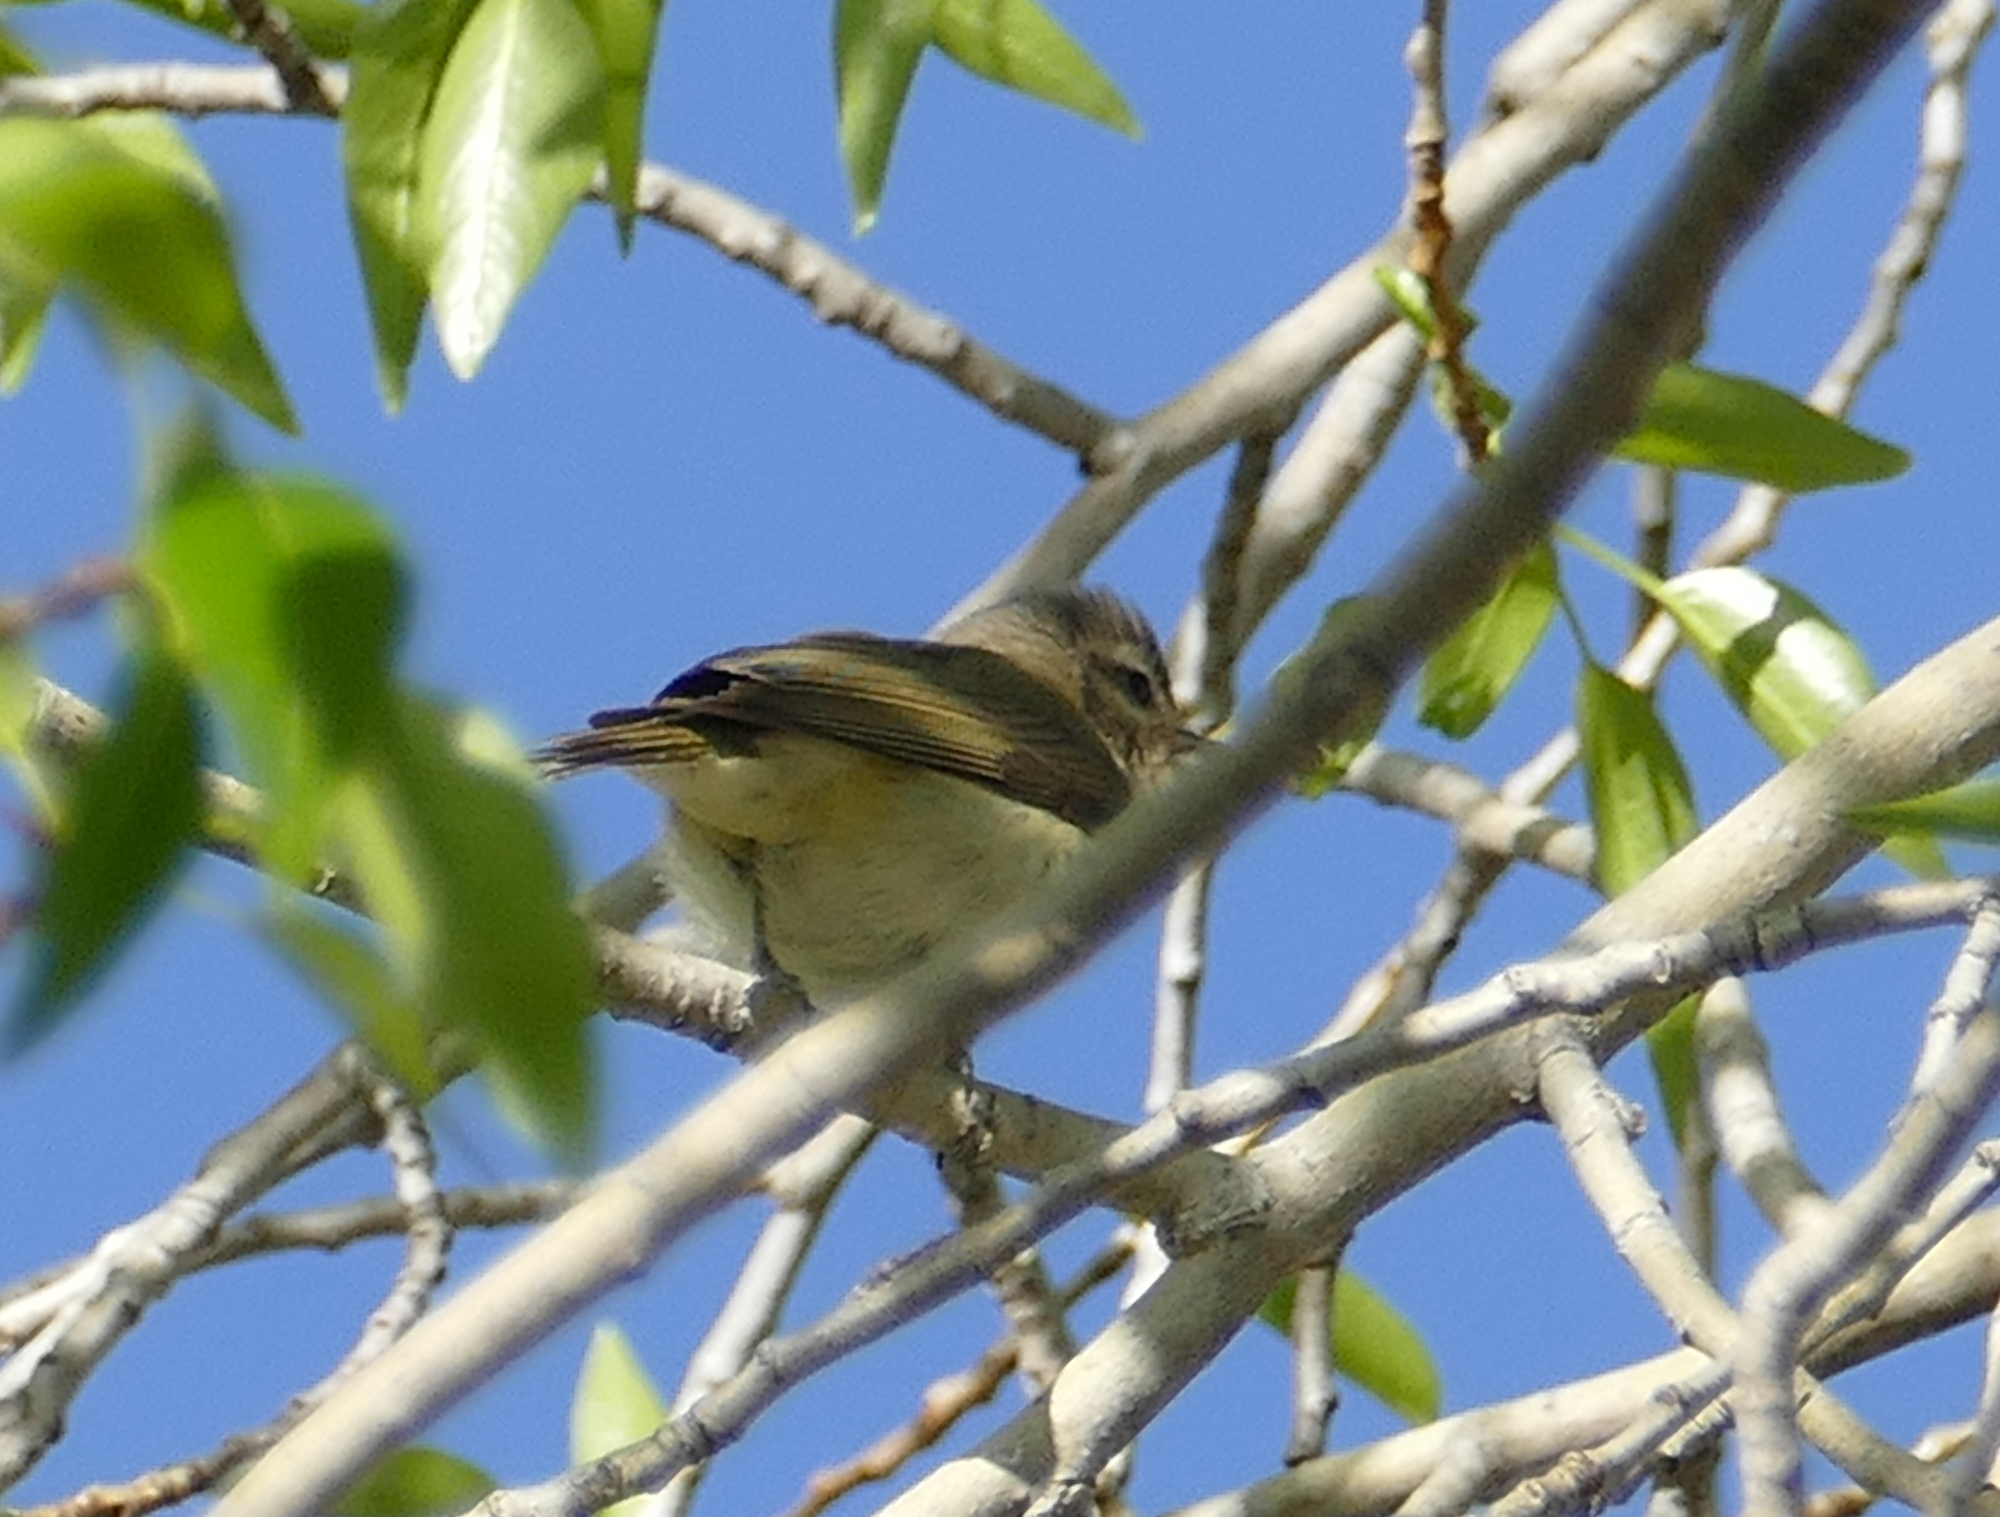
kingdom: Animalia
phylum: Chordata
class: Aves
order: Passeriformes
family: Vireonidae
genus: Vireo
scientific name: Vireo gilvus
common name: Warbling vireo
